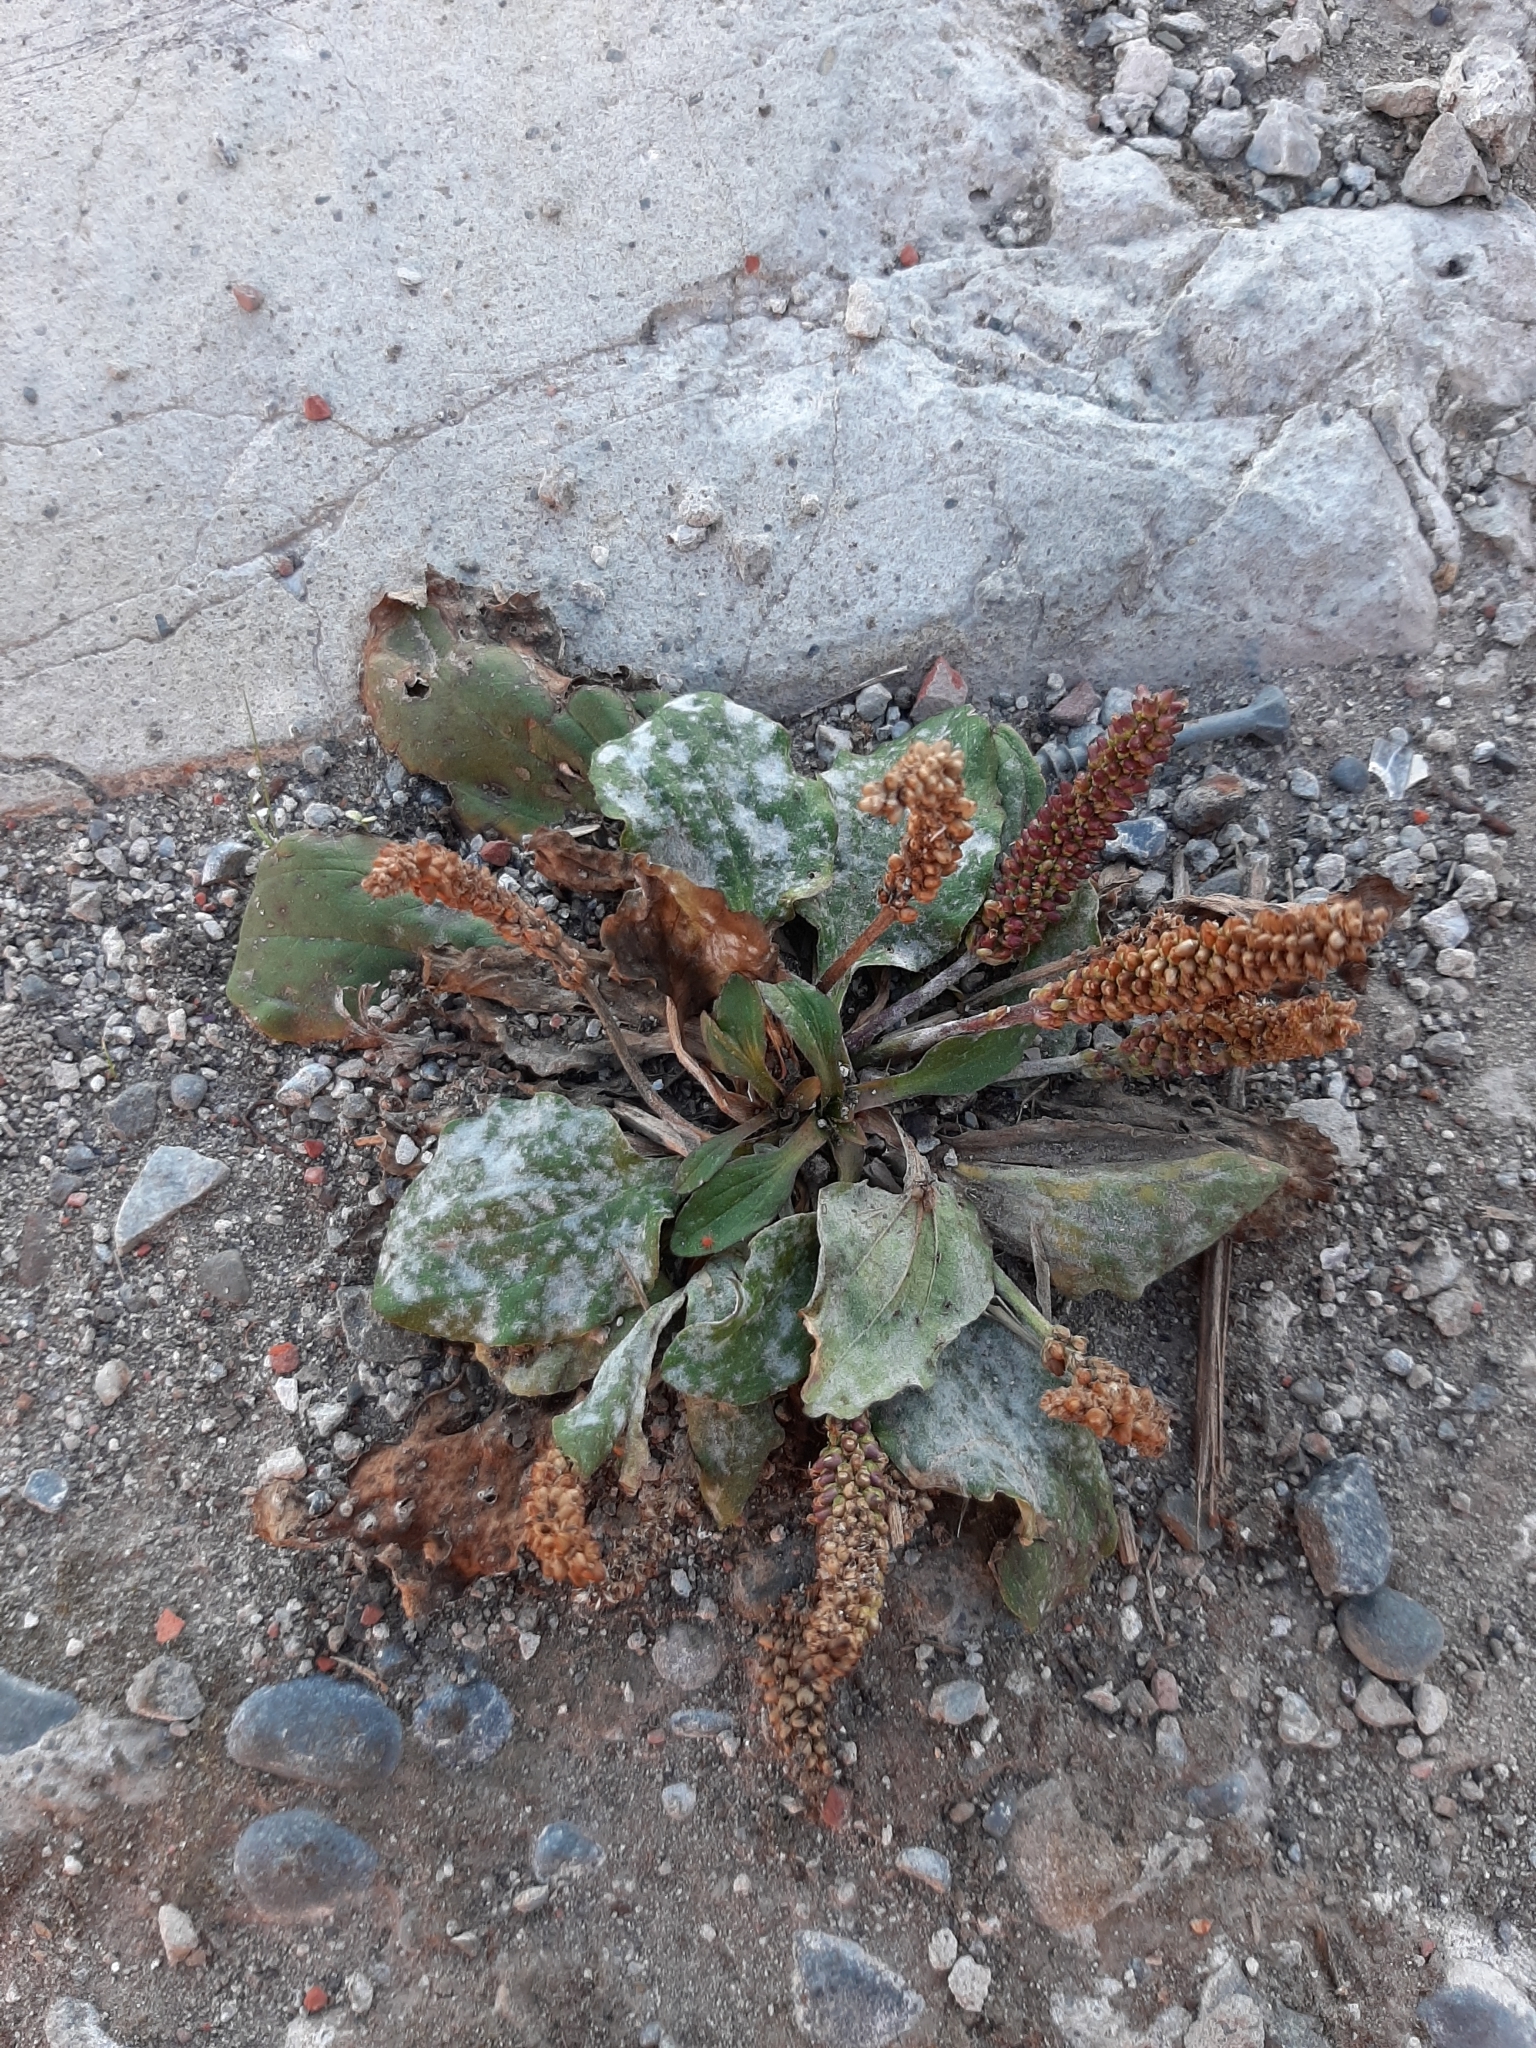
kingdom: Plantae
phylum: Tracheophyta
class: Magnoliopsida
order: Lamiales
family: Plantaginaceae
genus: Plantago
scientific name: Plantago major
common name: Common plantain
